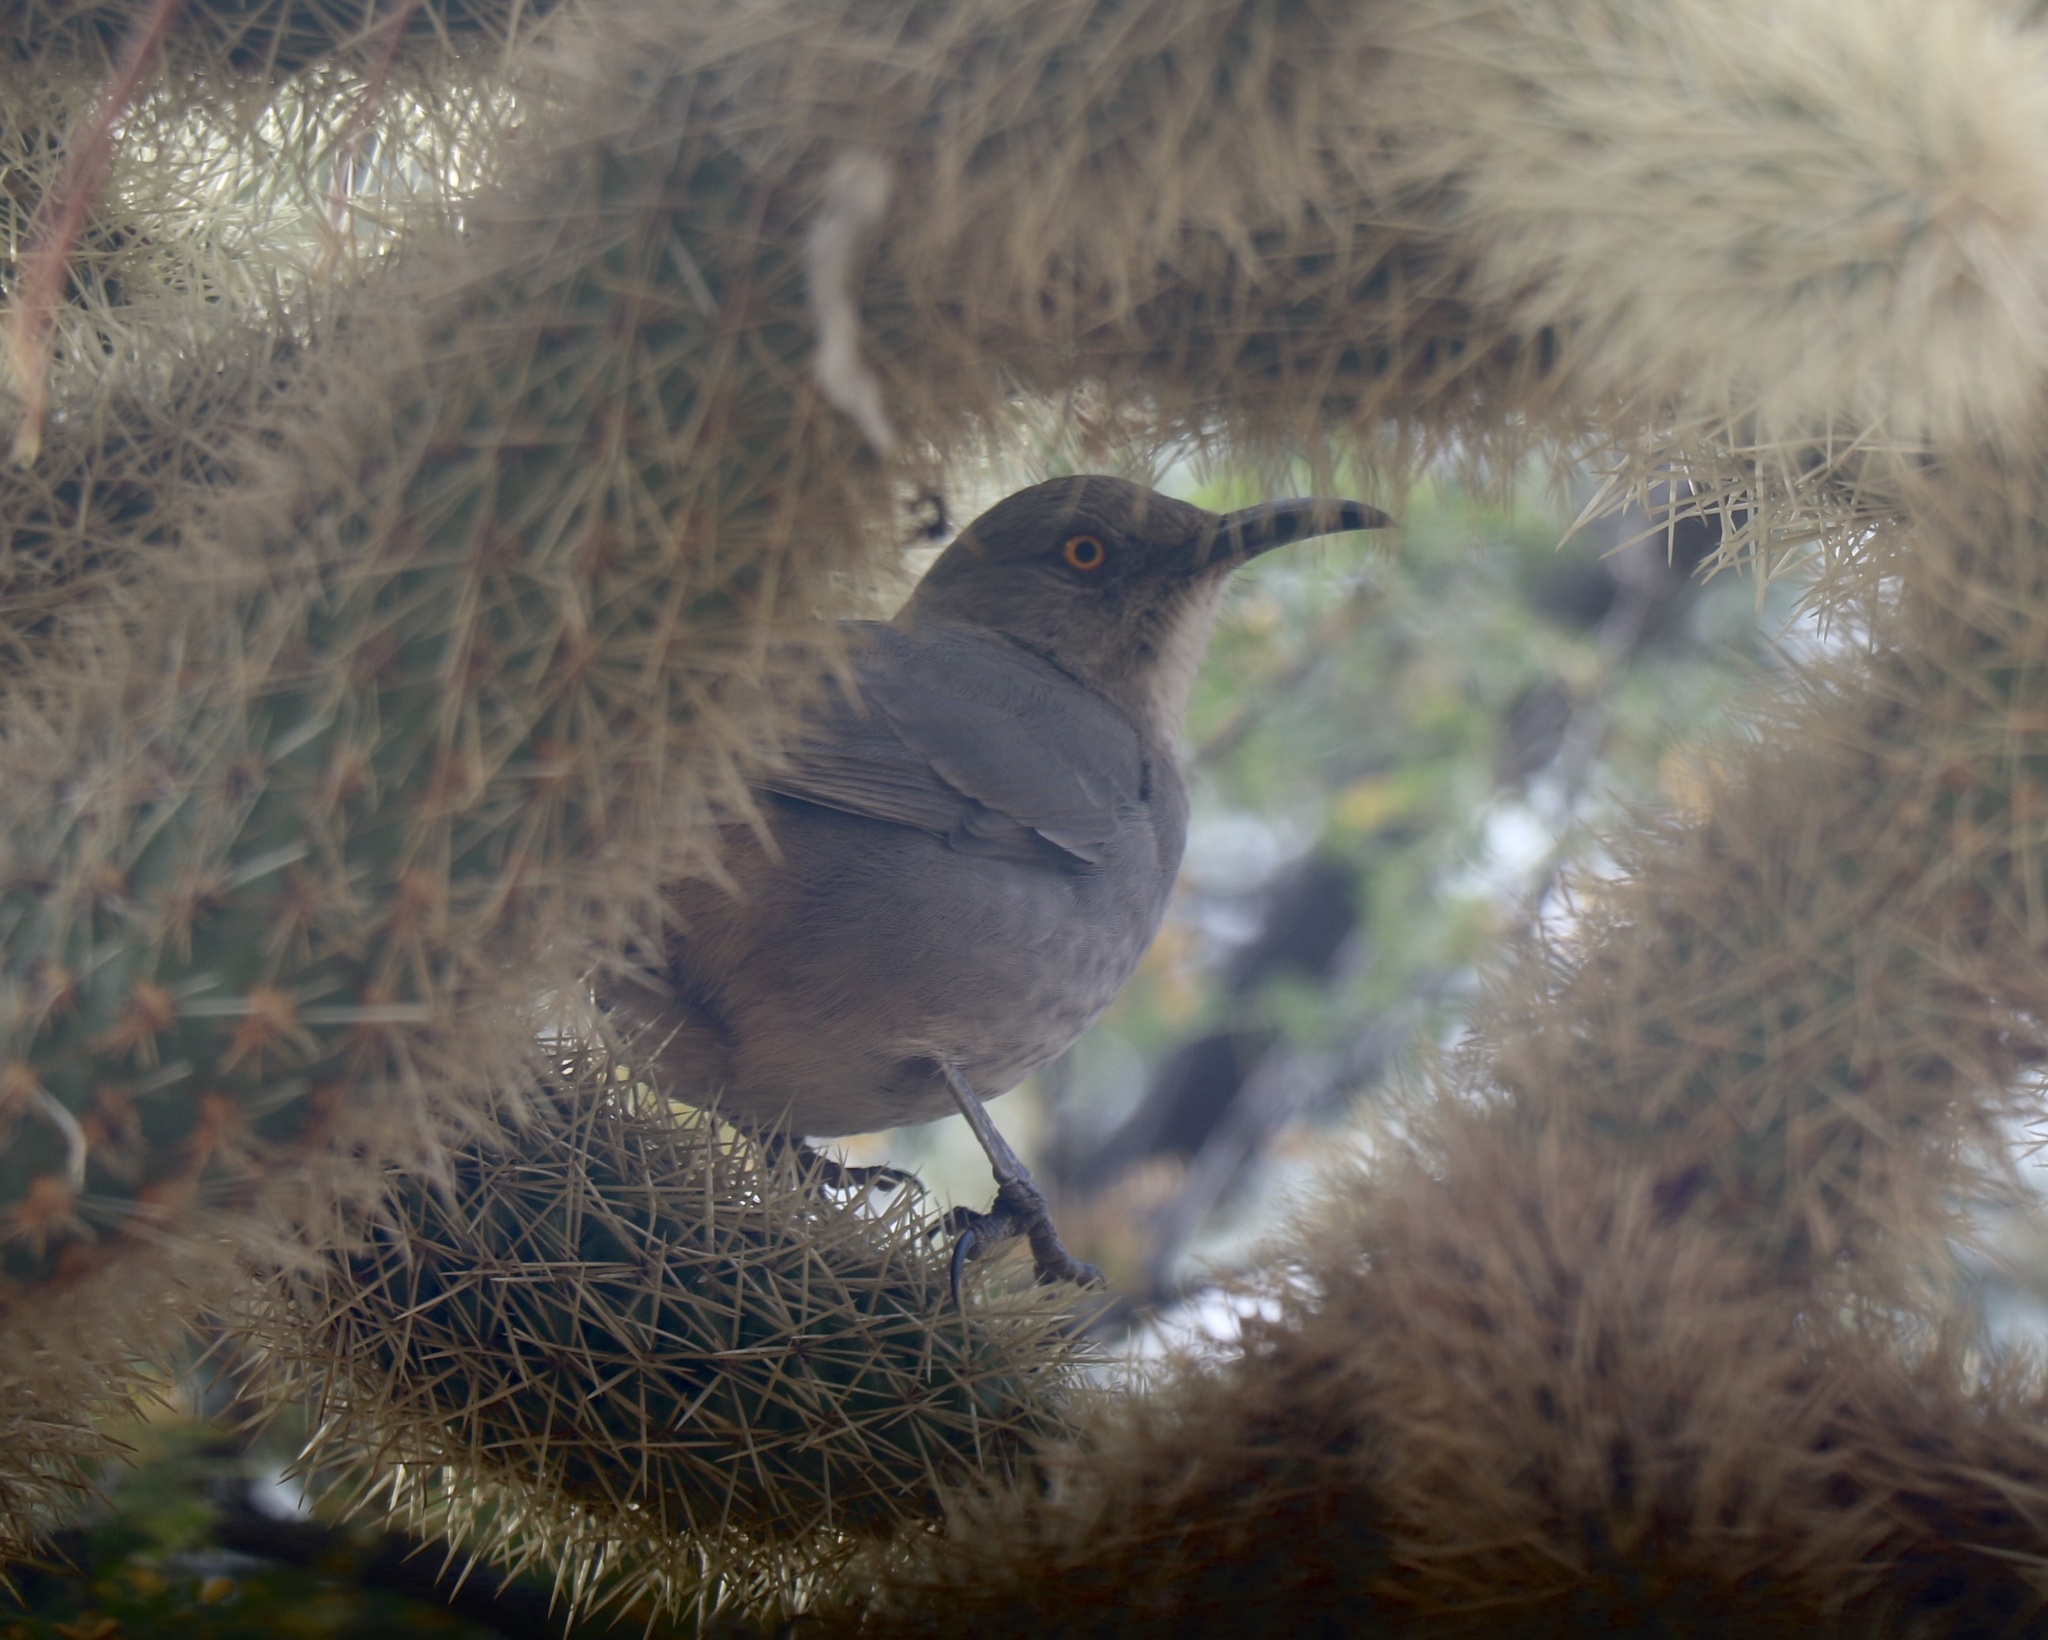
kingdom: Animalia
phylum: Chordata
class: Aves
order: Passeriformes
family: Mimidae
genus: Toxostoma
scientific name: Toxostoma curvirostre
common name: Curve-billed thrasher
